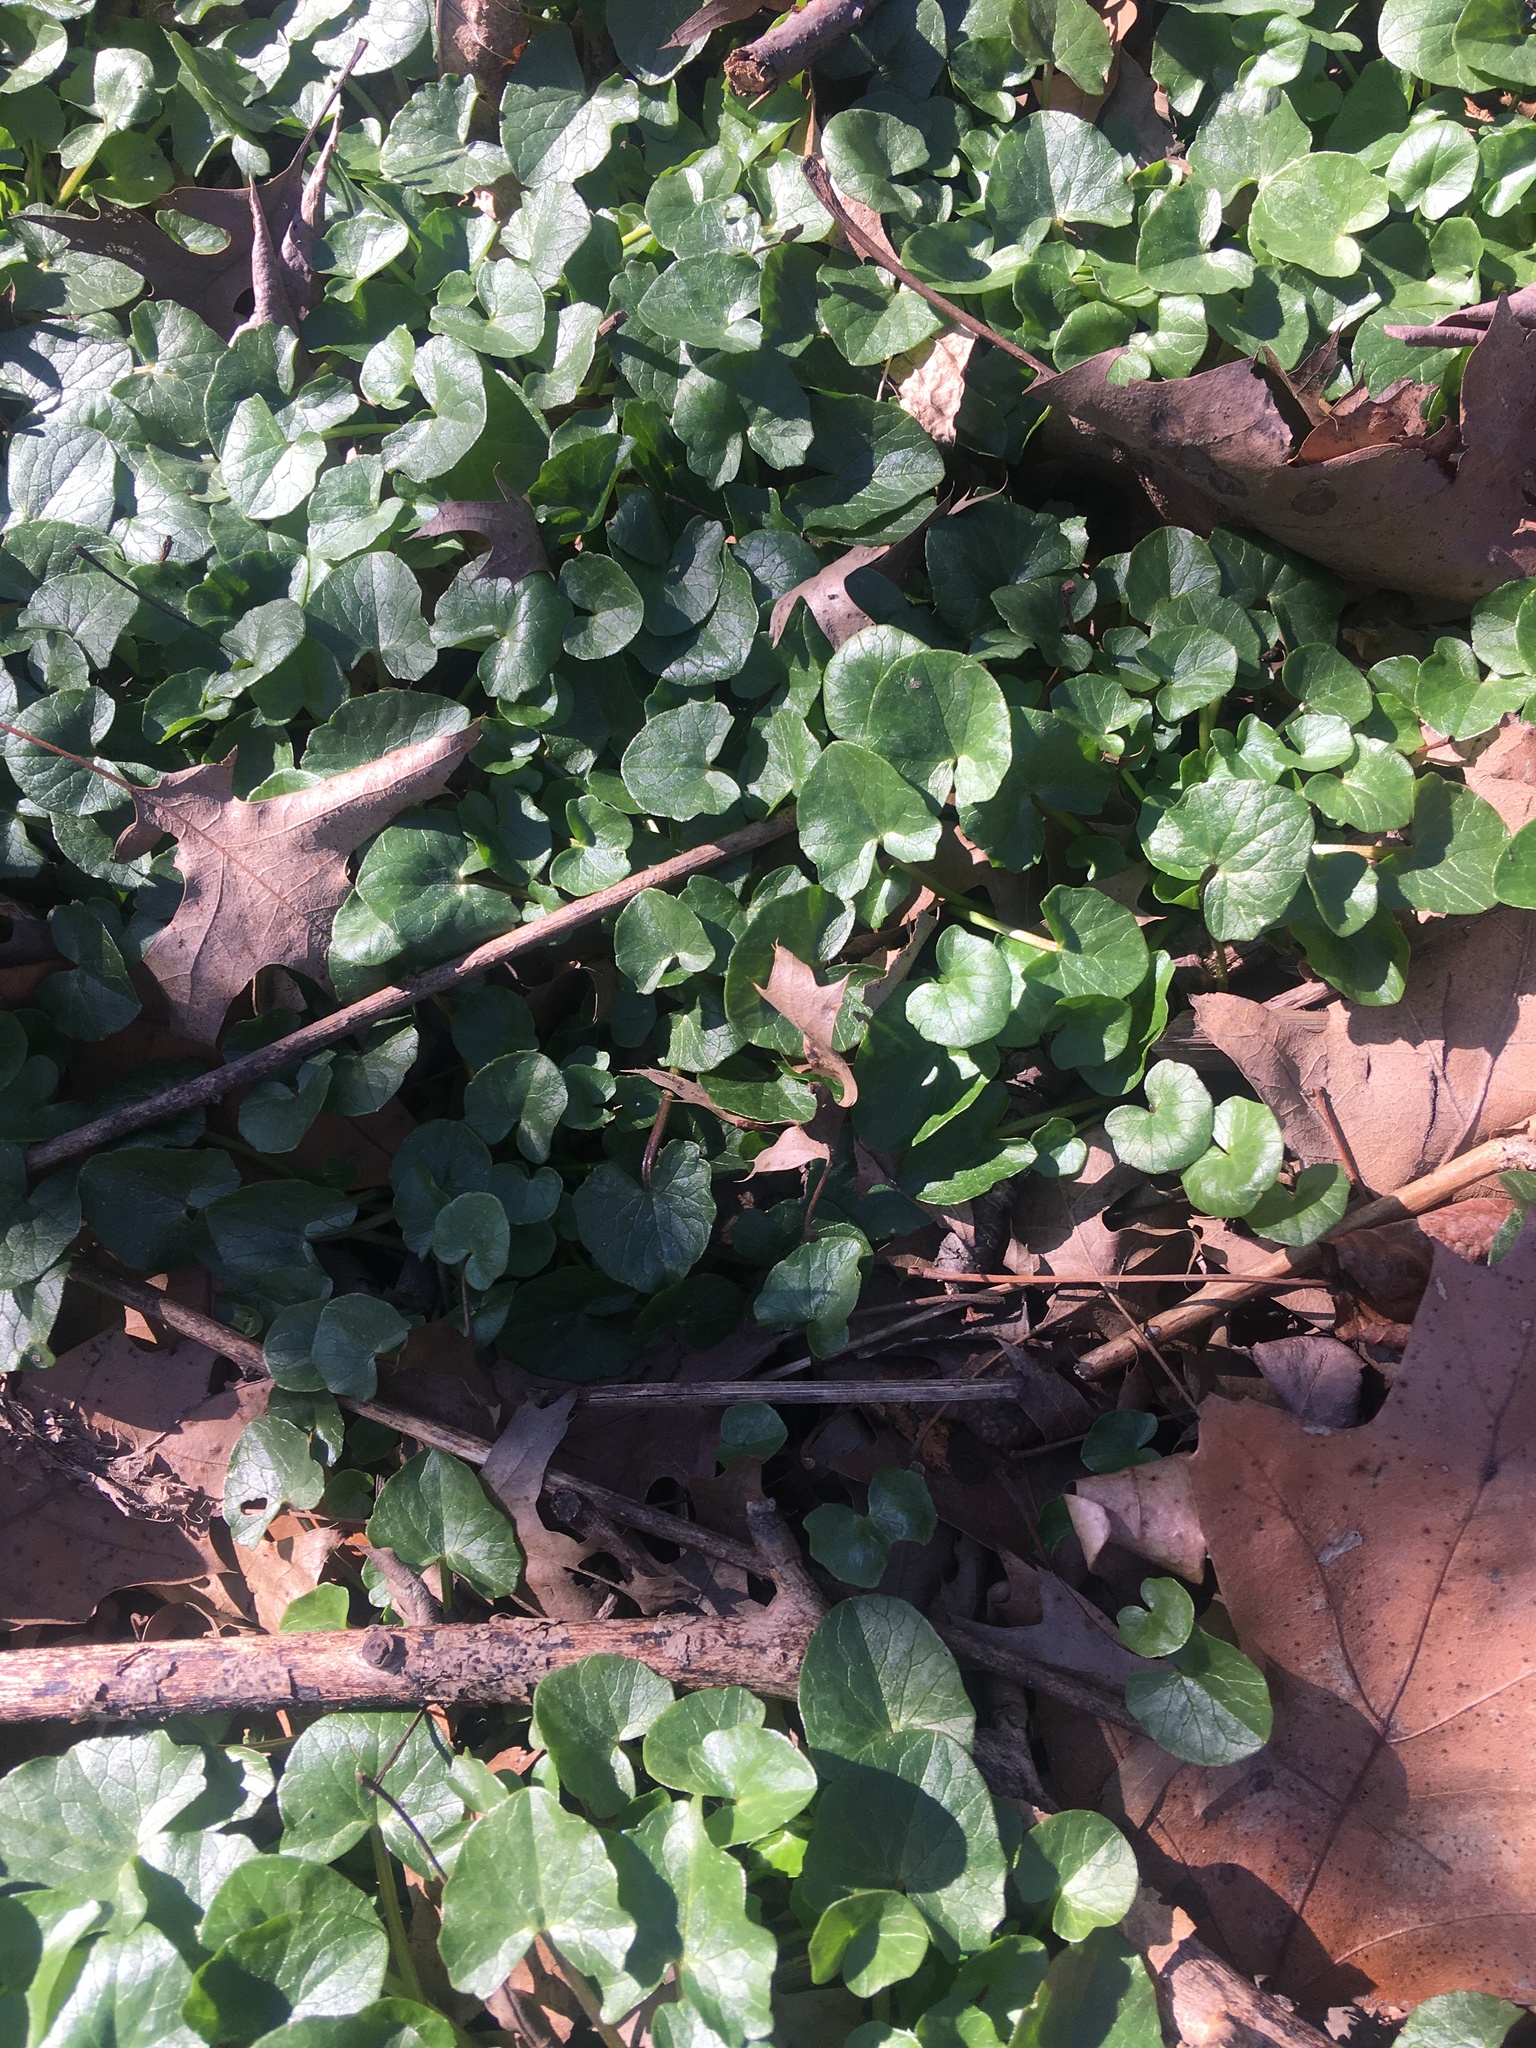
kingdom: Plantae
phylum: Tracheophyta
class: Magnoliopsida
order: Ranunculales
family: Ranunculaceae
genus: Ficaria
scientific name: Ficaria verna
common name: Lesser celandine
